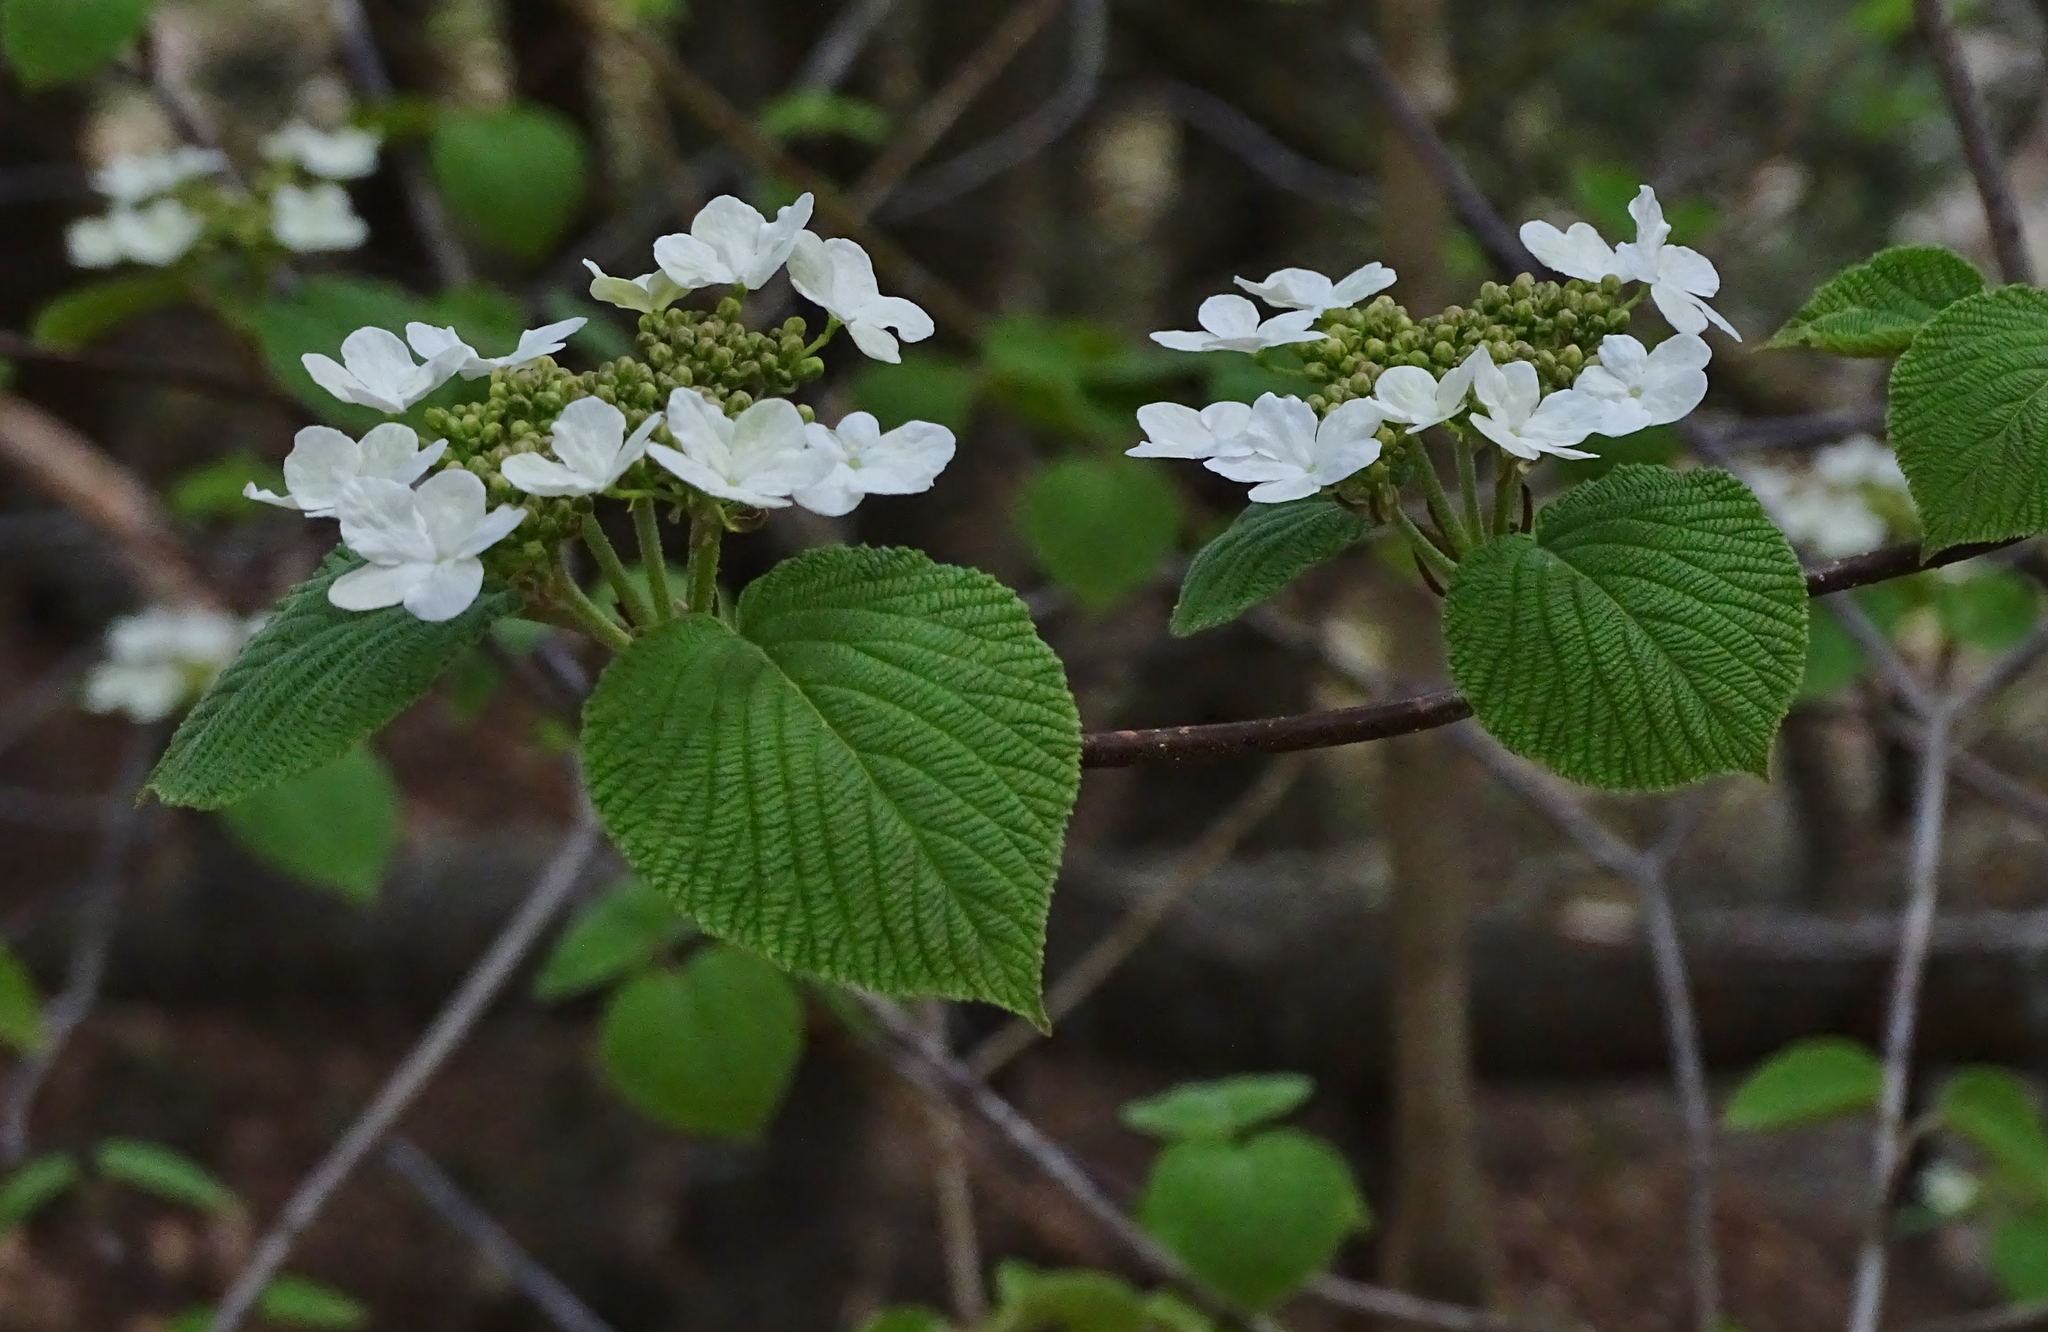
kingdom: Plantae
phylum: Tracheophyta
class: Magnoliopsida
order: Dipsacales
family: Viburnaceae
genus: Viburnum
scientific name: Viburnum lantanoides
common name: Hobblebush
